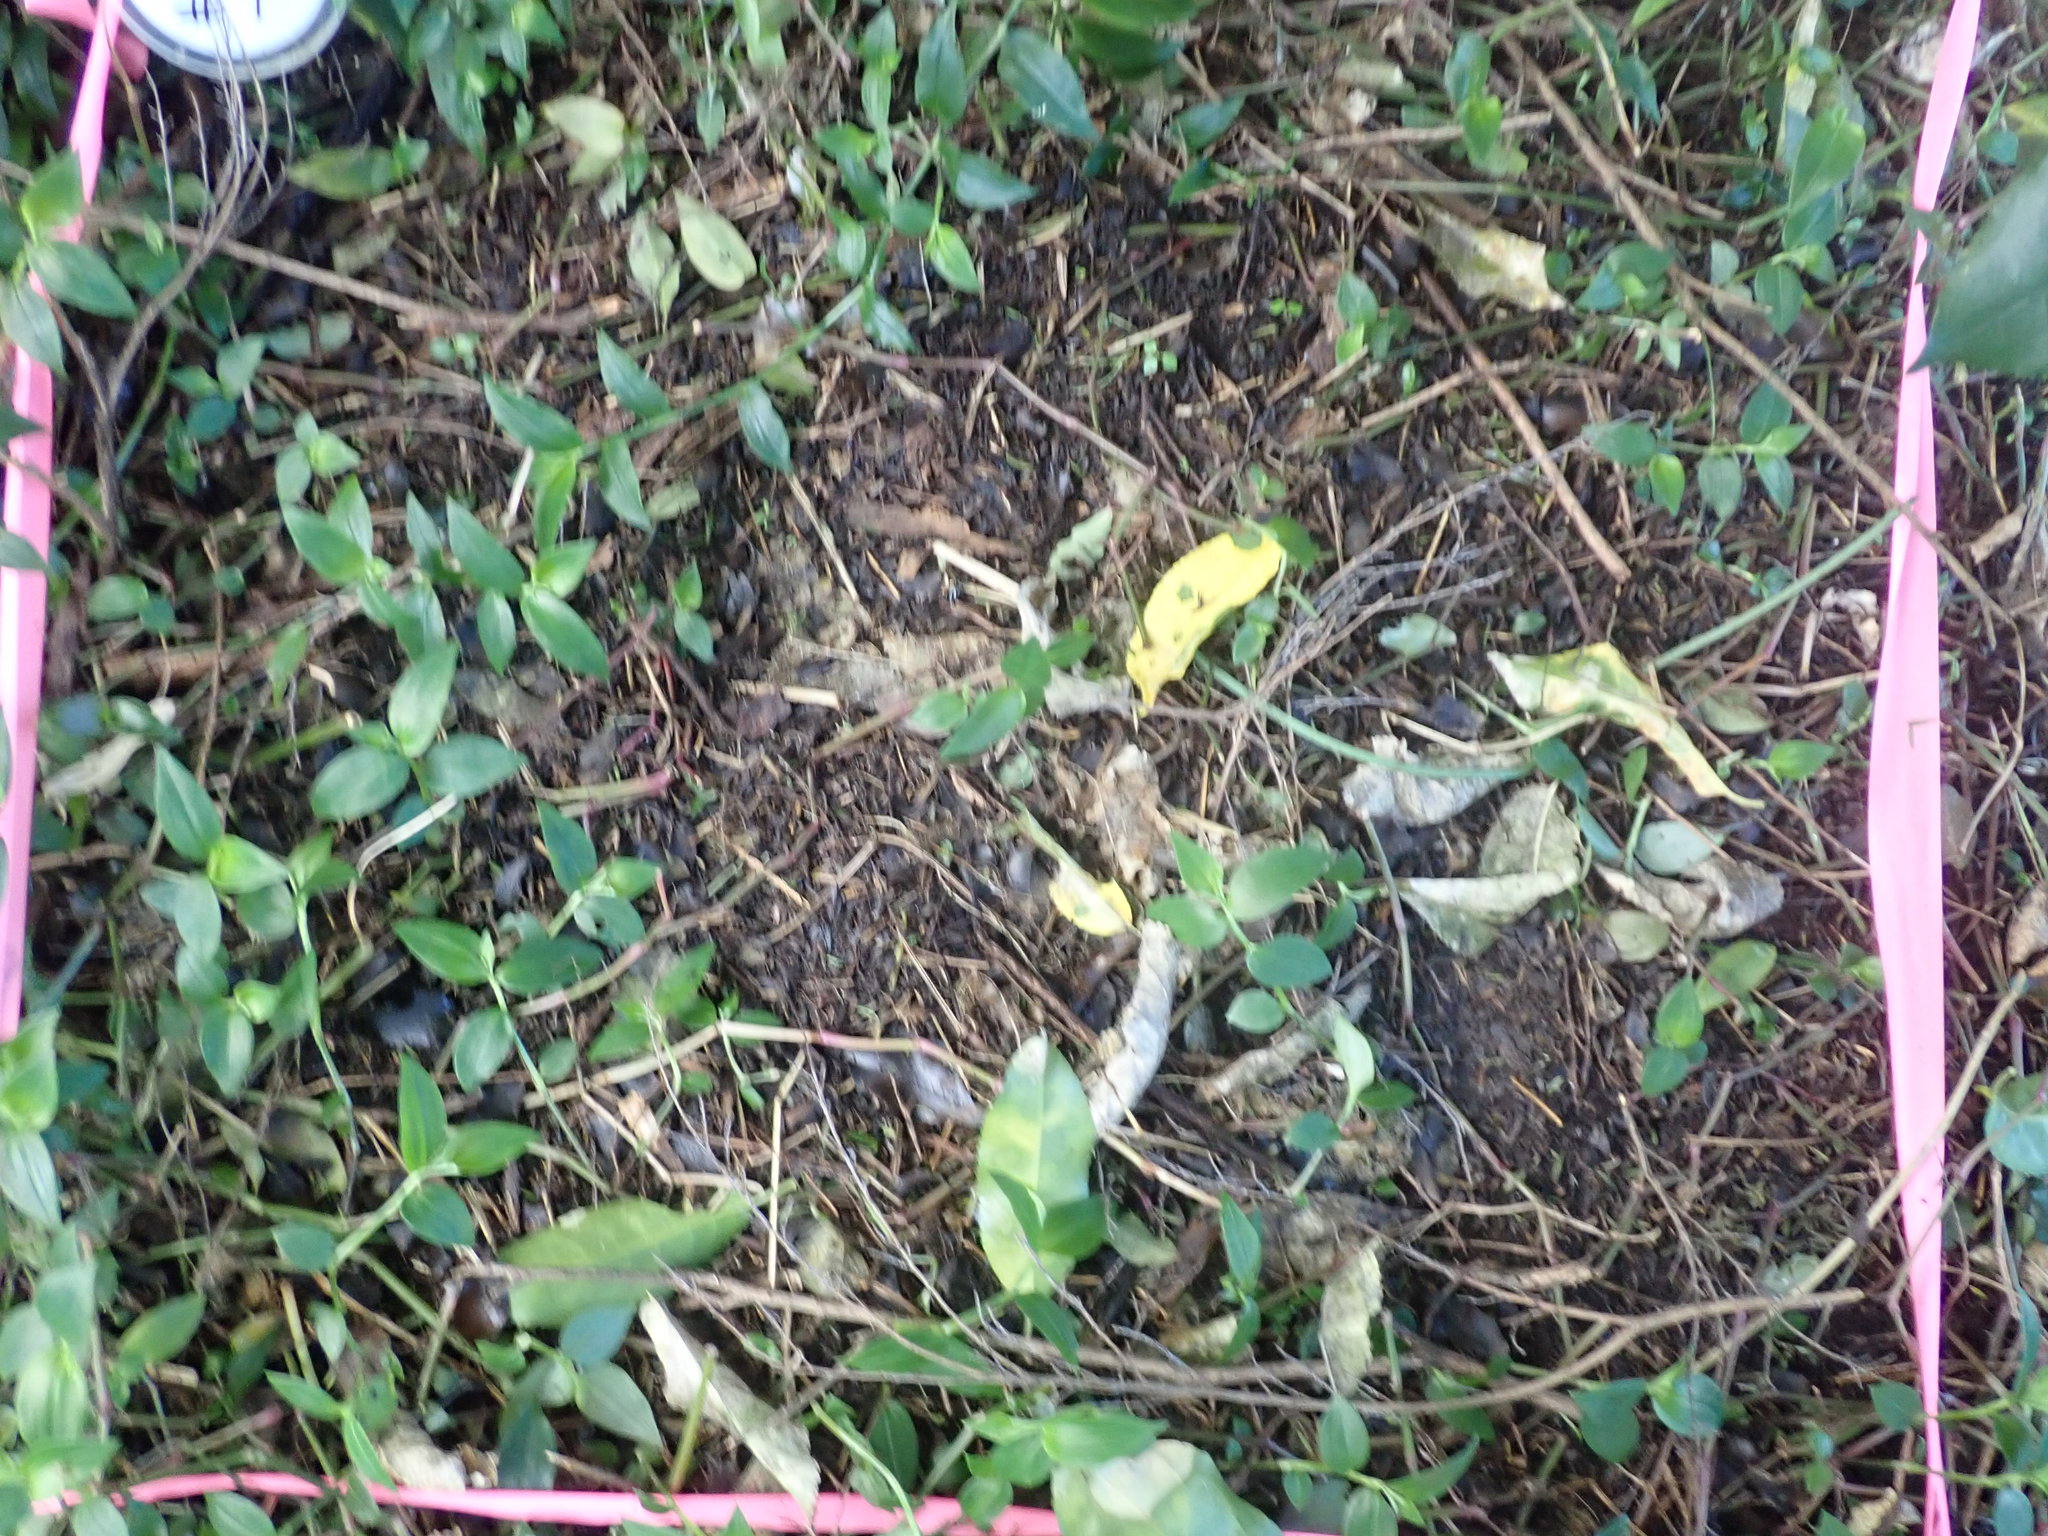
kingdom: Plantae
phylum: Tracheophyta
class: Magnoliopsida
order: Piperales
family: Piperaceae
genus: Macropiper
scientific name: Macropiper excelsum
